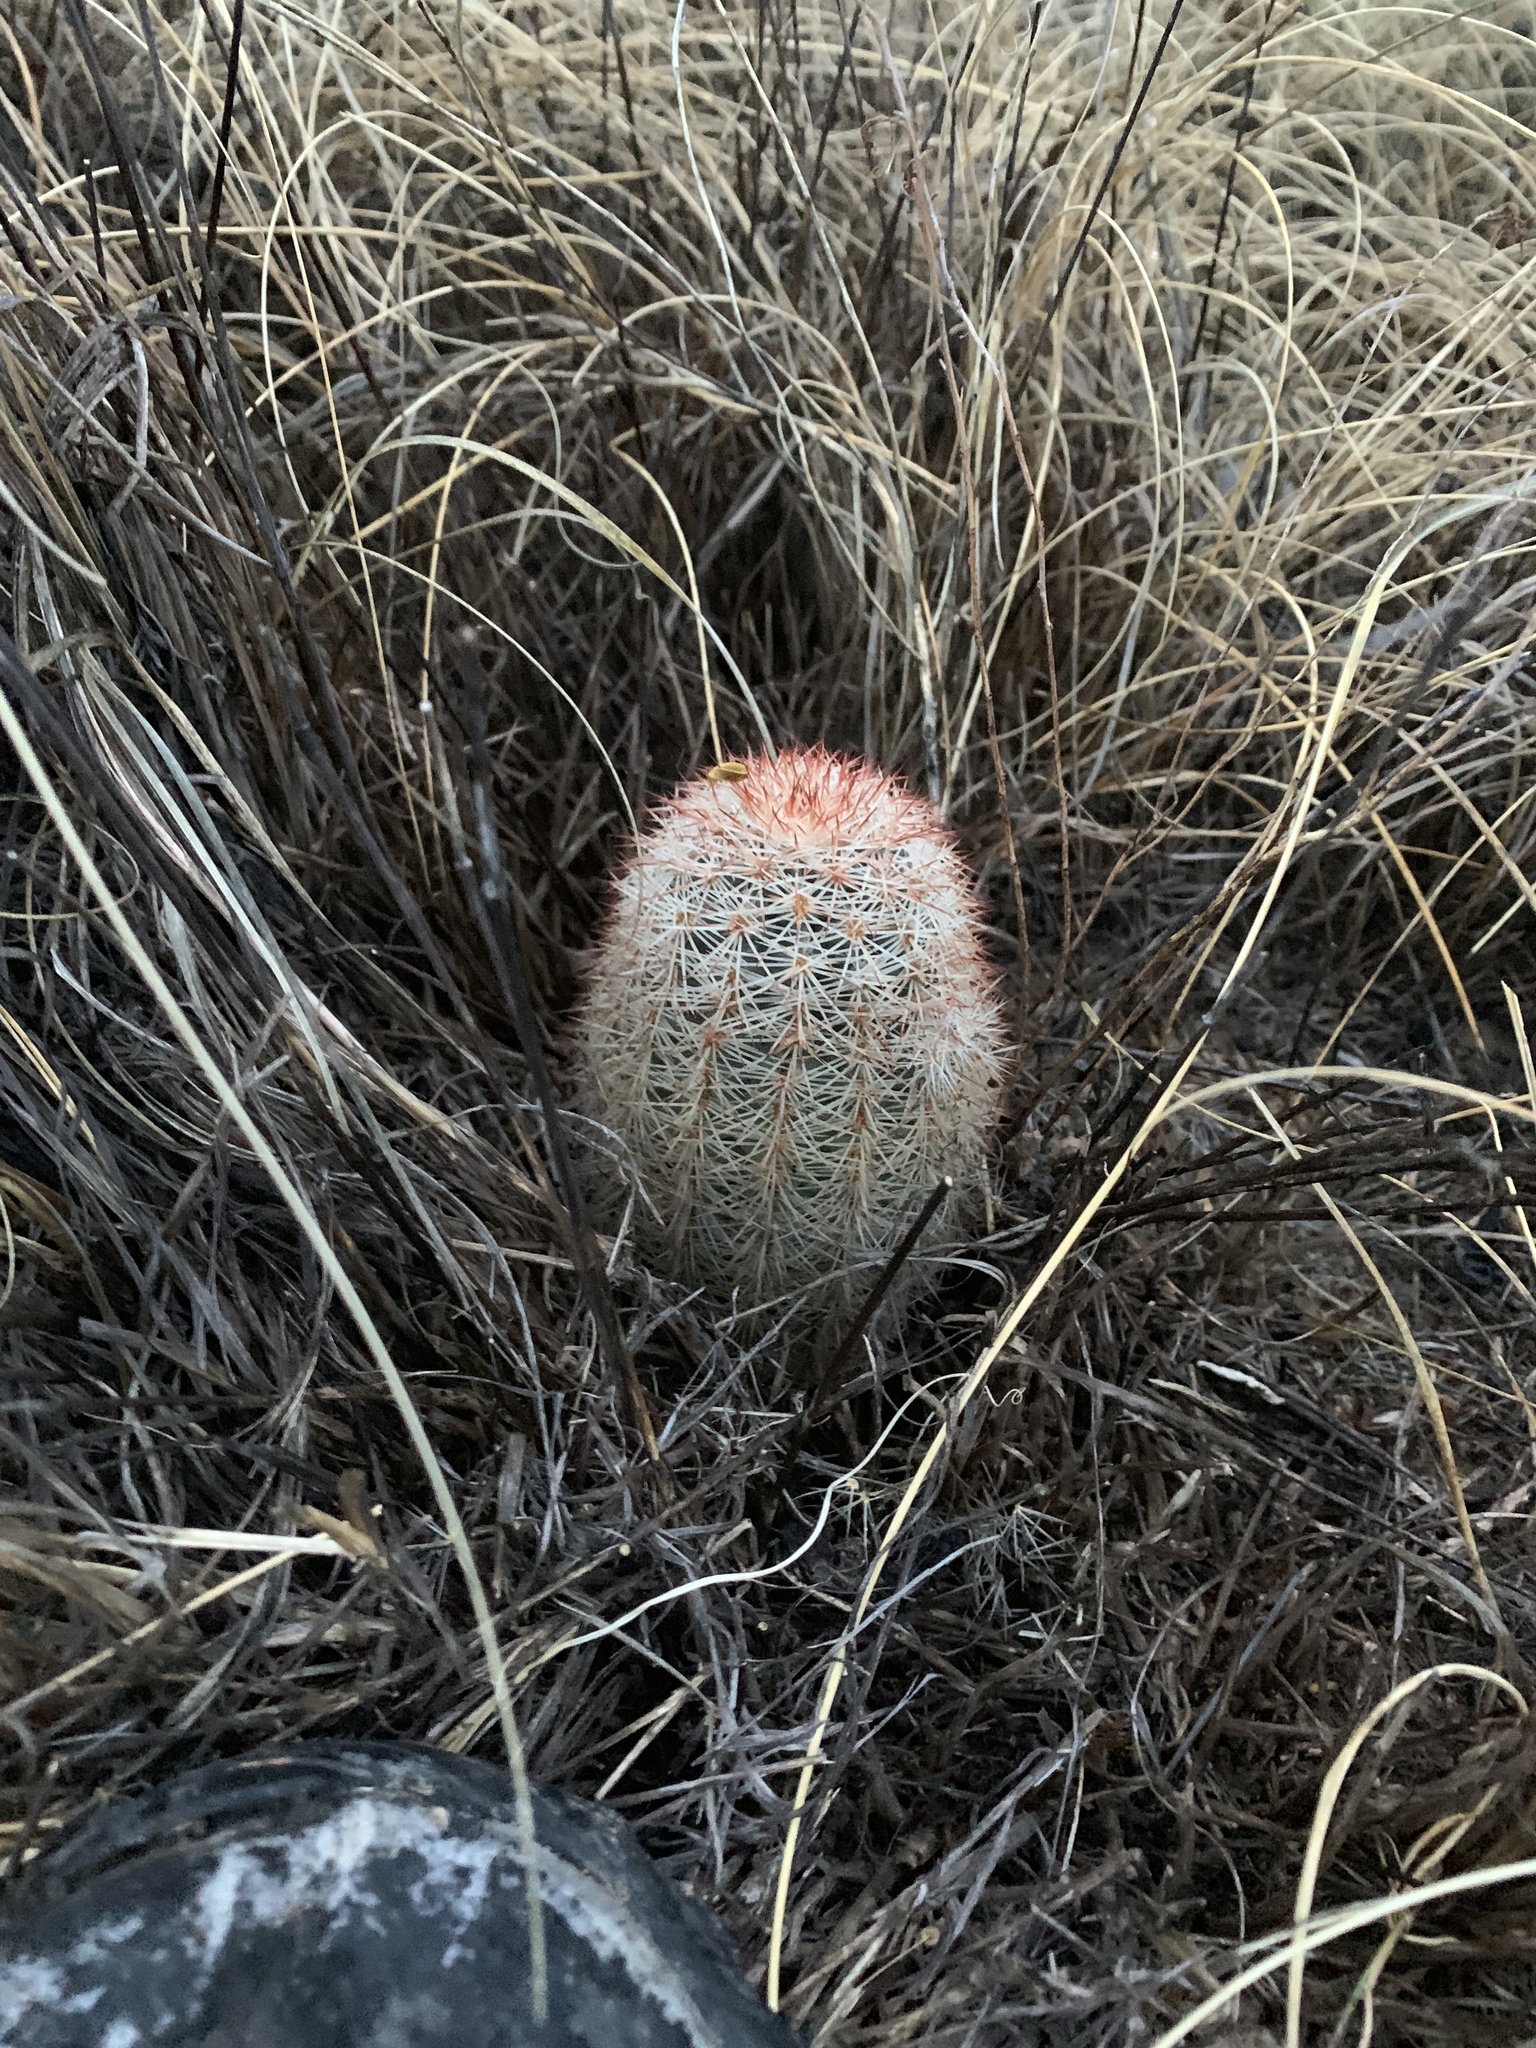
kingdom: Plantae
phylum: Tracheophyta
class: Magnoliopsida
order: Caryophyllales
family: Cactaceae
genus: Echinocereus
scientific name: Echinocereus dasyacanthus
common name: Spiny hedgehog cactus
